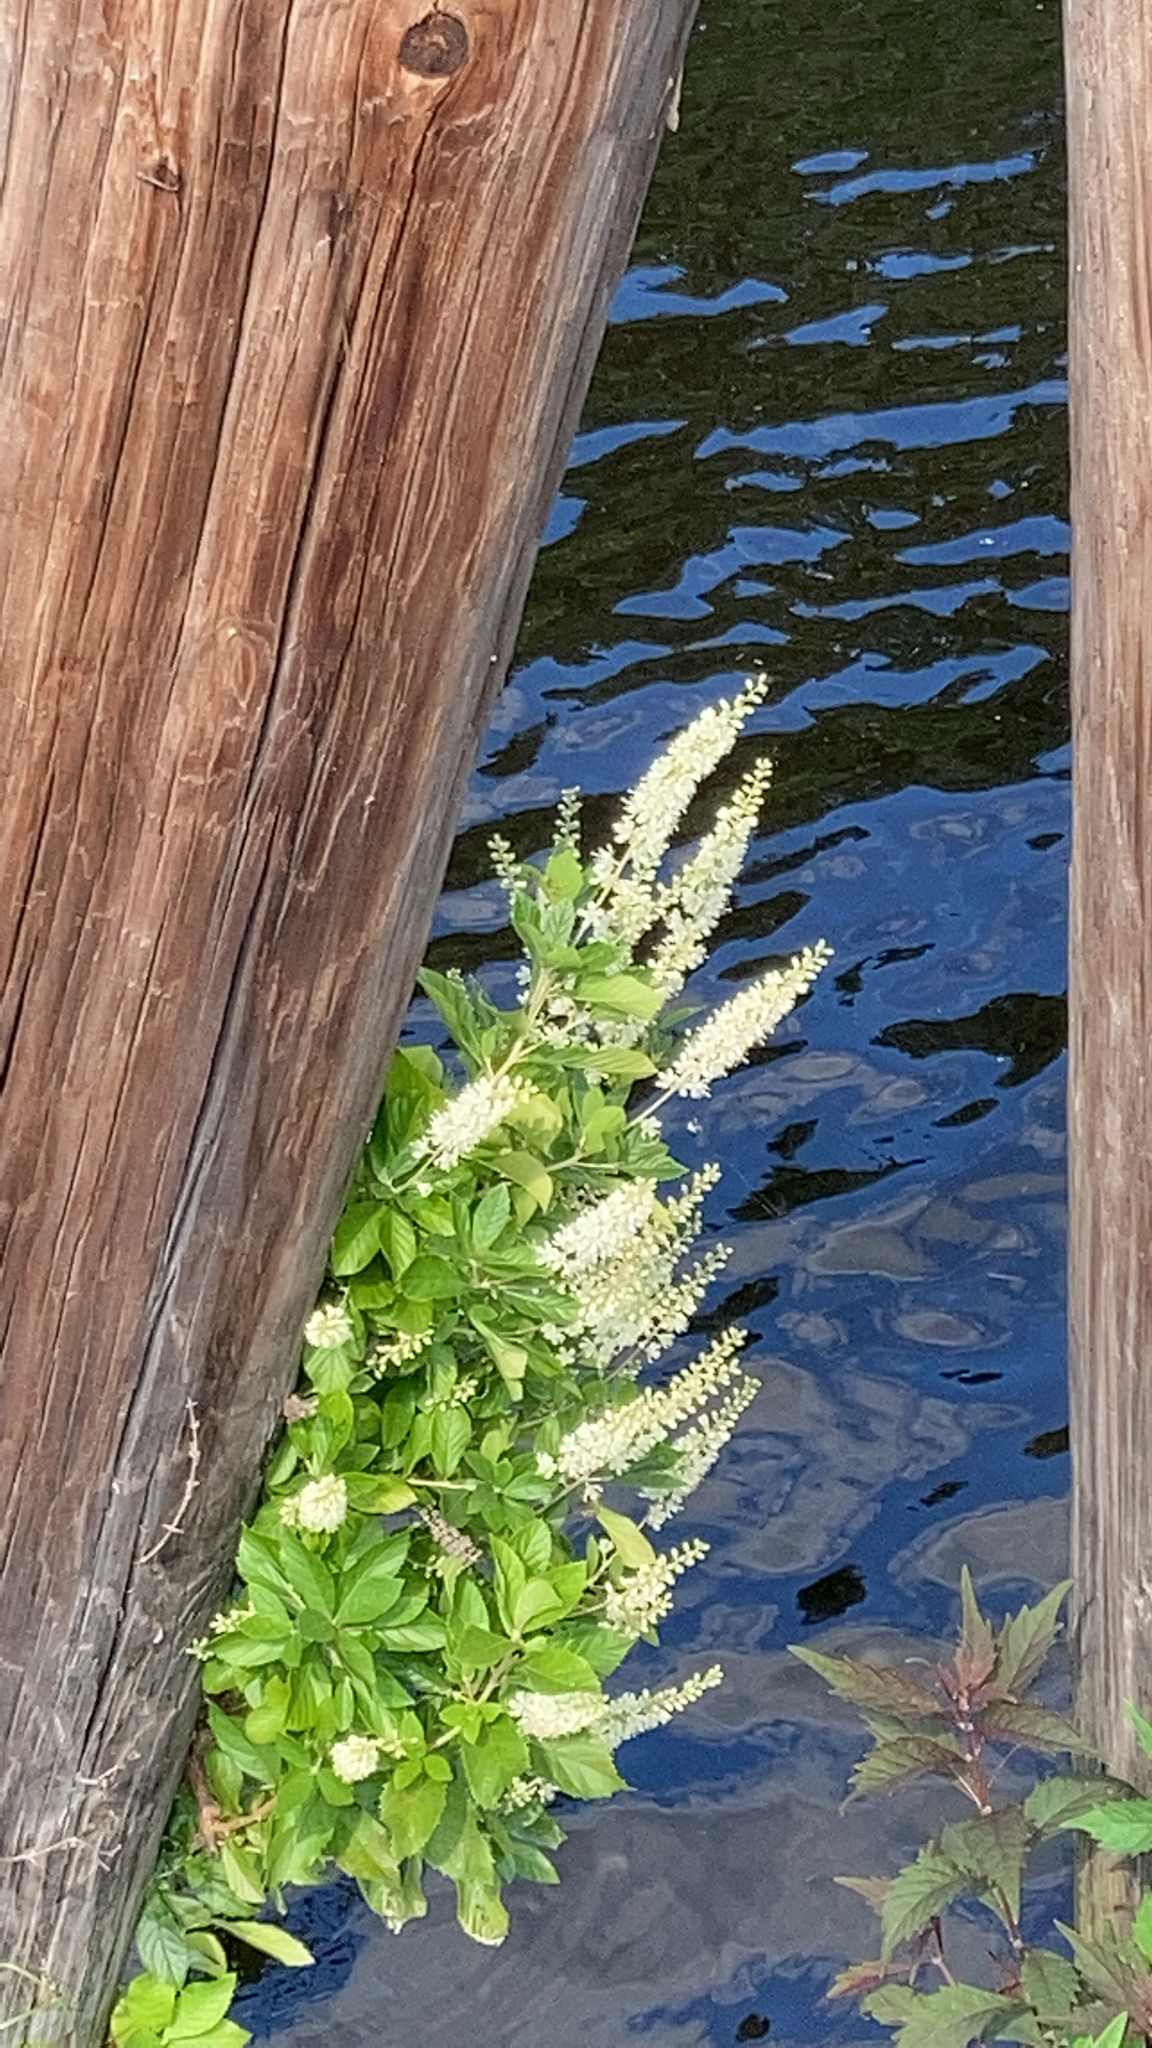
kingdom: Plantae
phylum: Tracheophyta
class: Magnoliopsida
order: Ericales
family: Clethraceae
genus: Clethra
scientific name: Clethra alnifolia
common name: Sweet pepperbush
